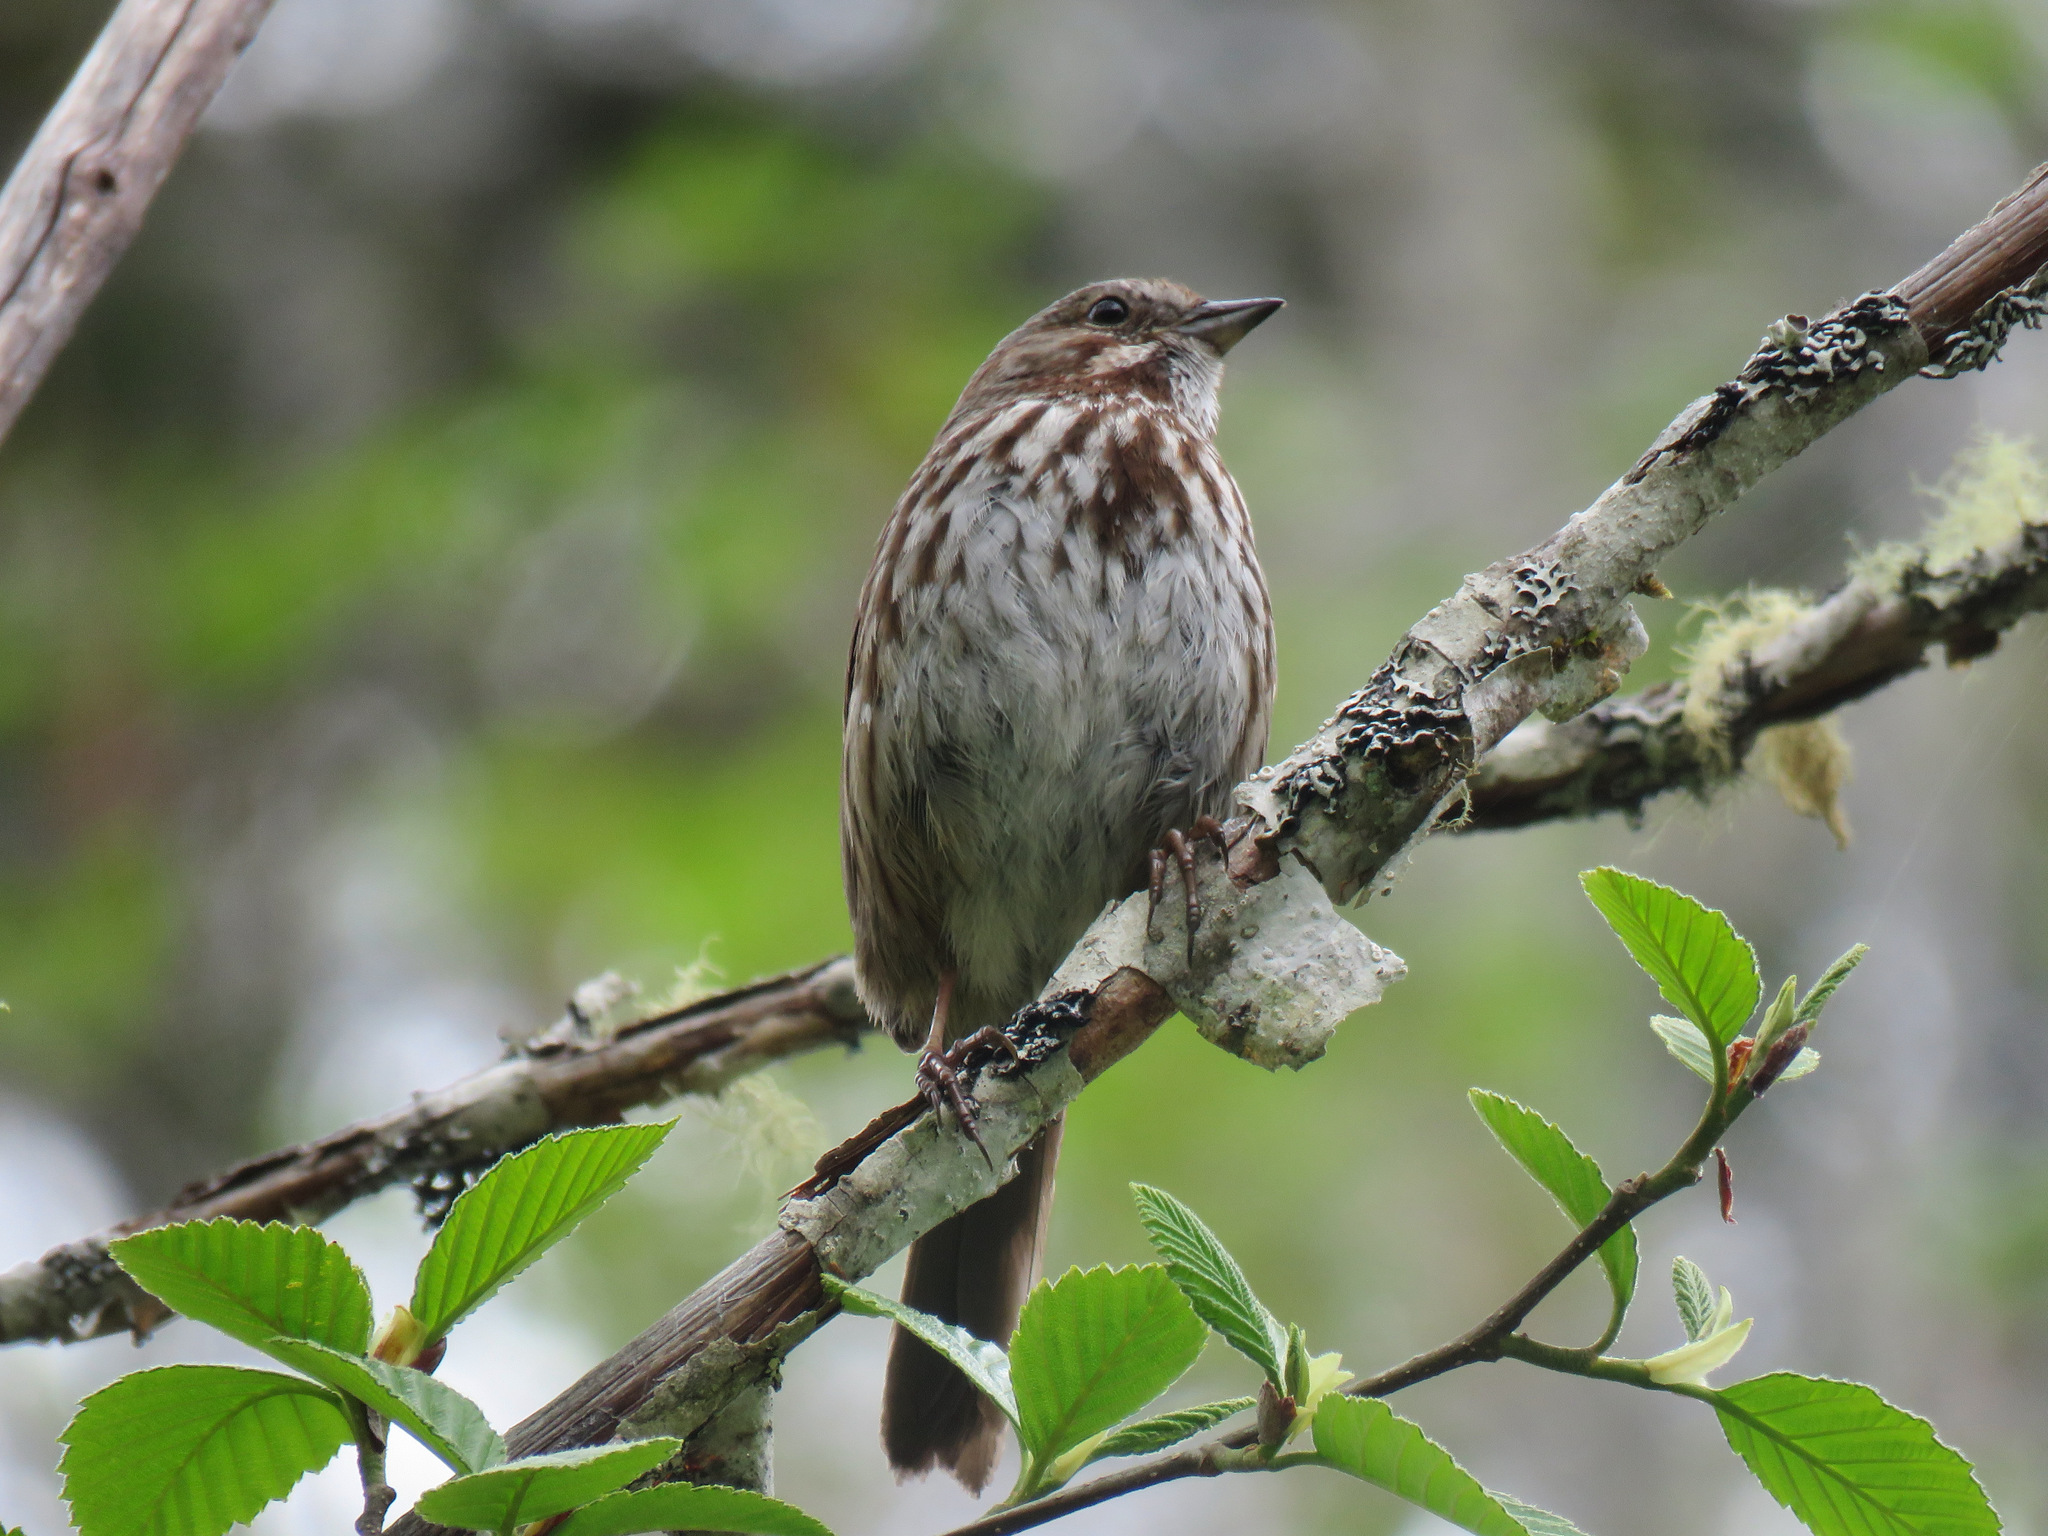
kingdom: Animalia
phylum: Chordata
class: Aves
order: Passeriformes
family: Passerellidae
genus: Melospiza
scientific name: Melospiza melodia
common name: Song sparrow
